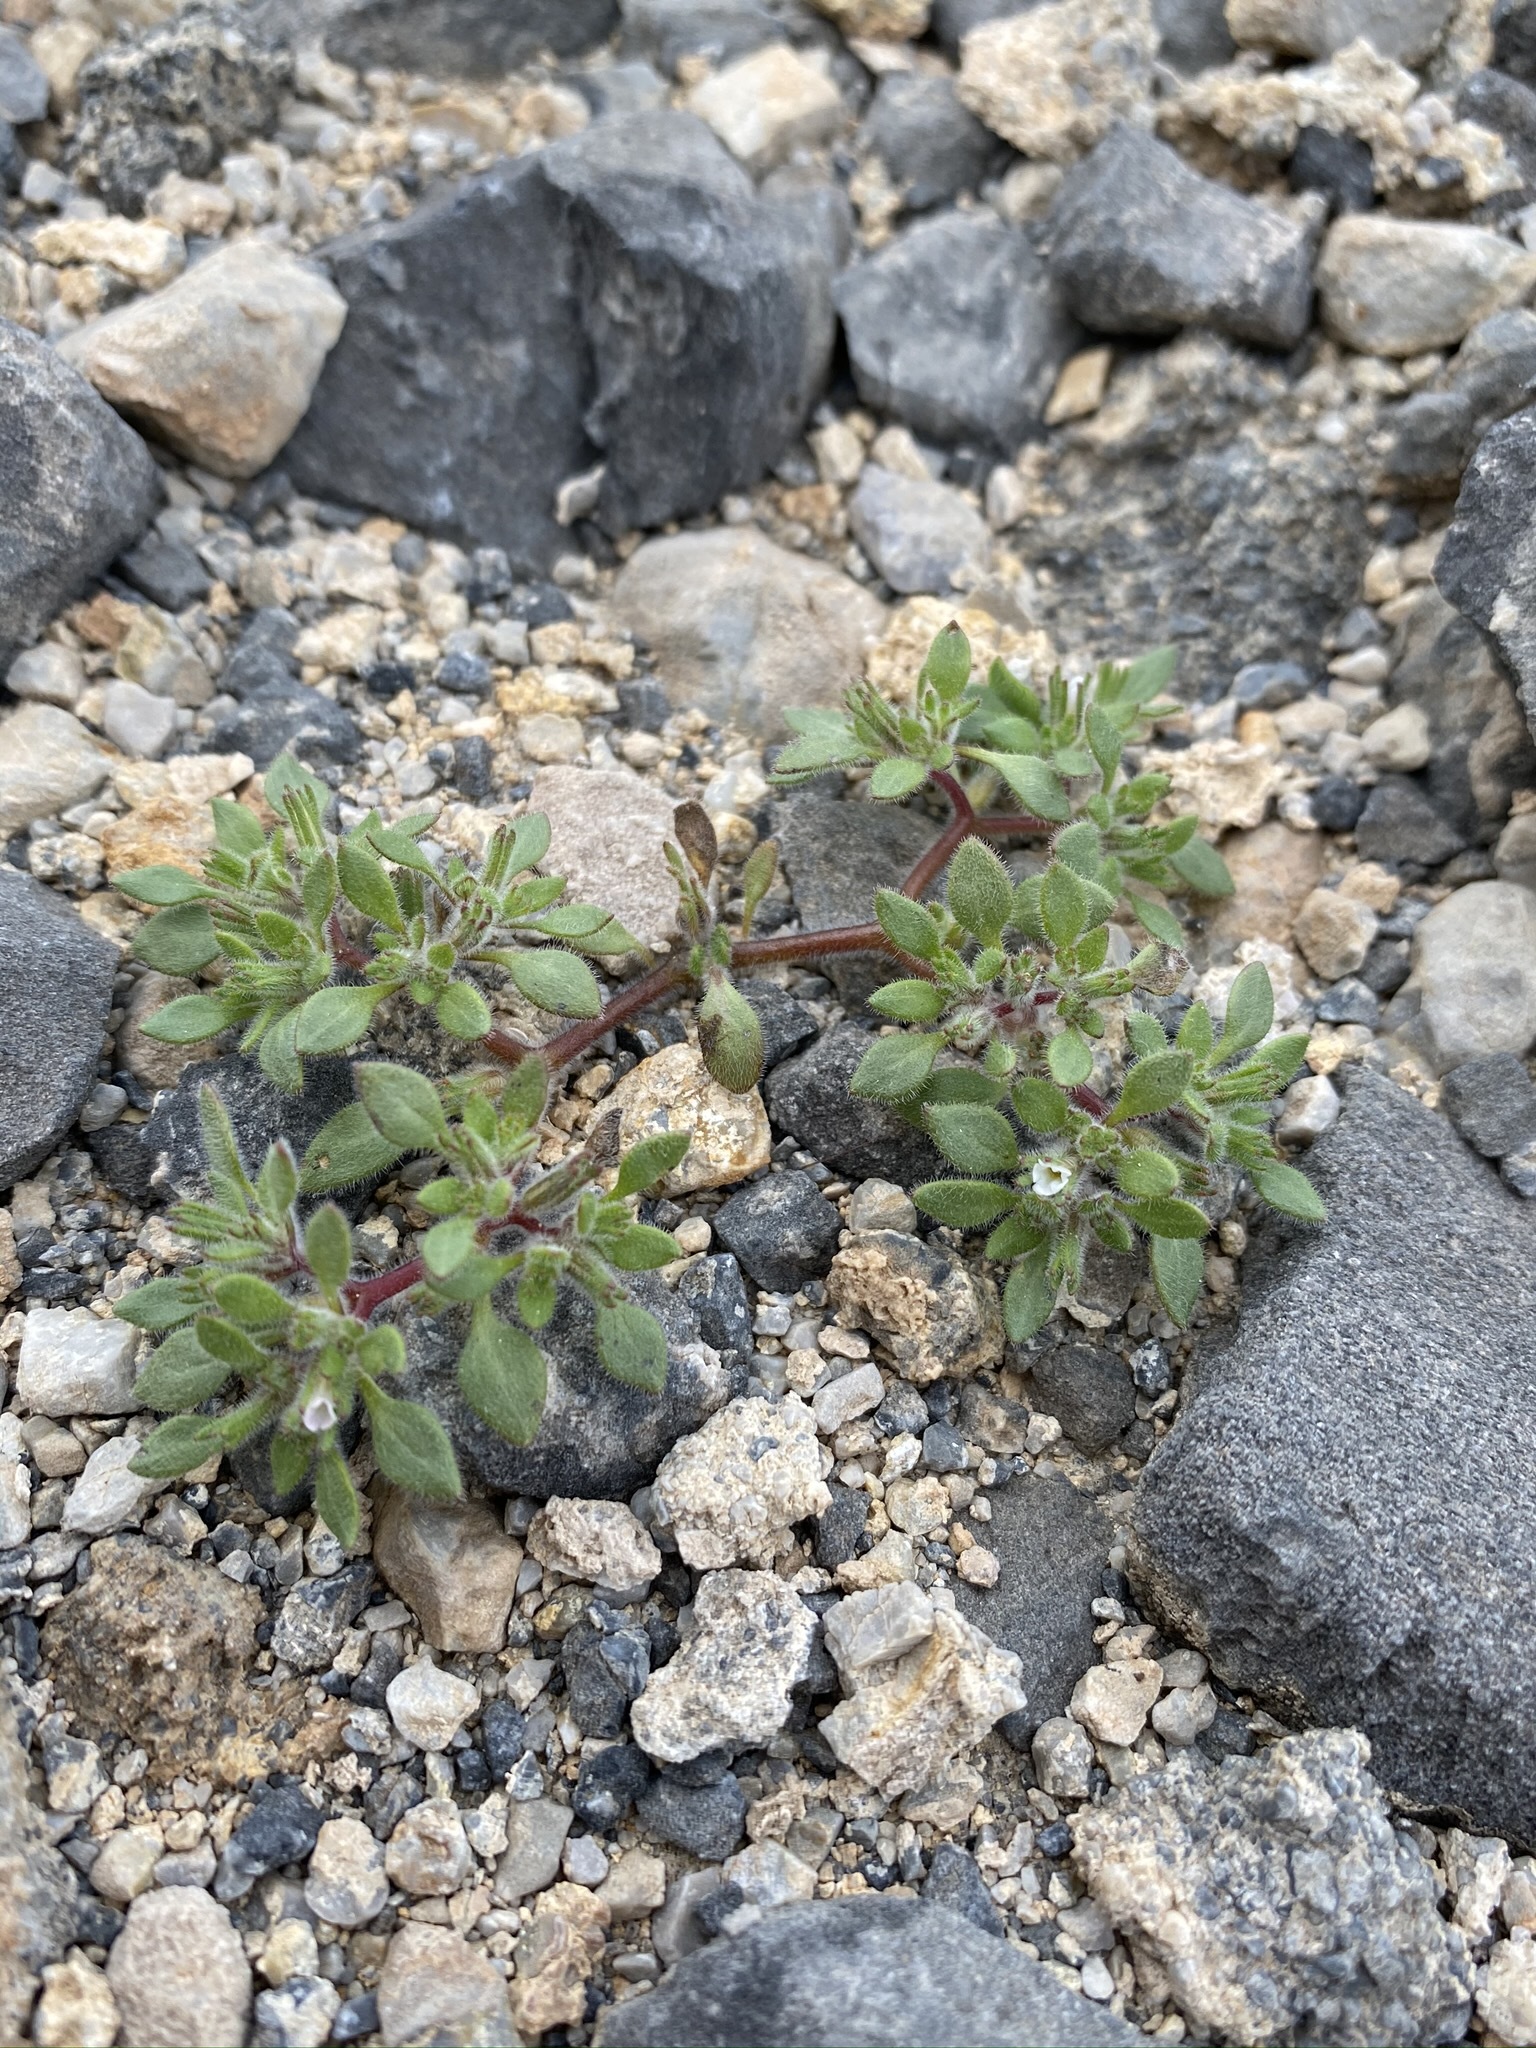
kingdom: Plantae
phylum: Tracheophyta
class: Magnoliopsida
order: Boraginales
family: Namaceae
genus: Nama
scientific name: Nama pusilla
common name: Eggleaf nama
